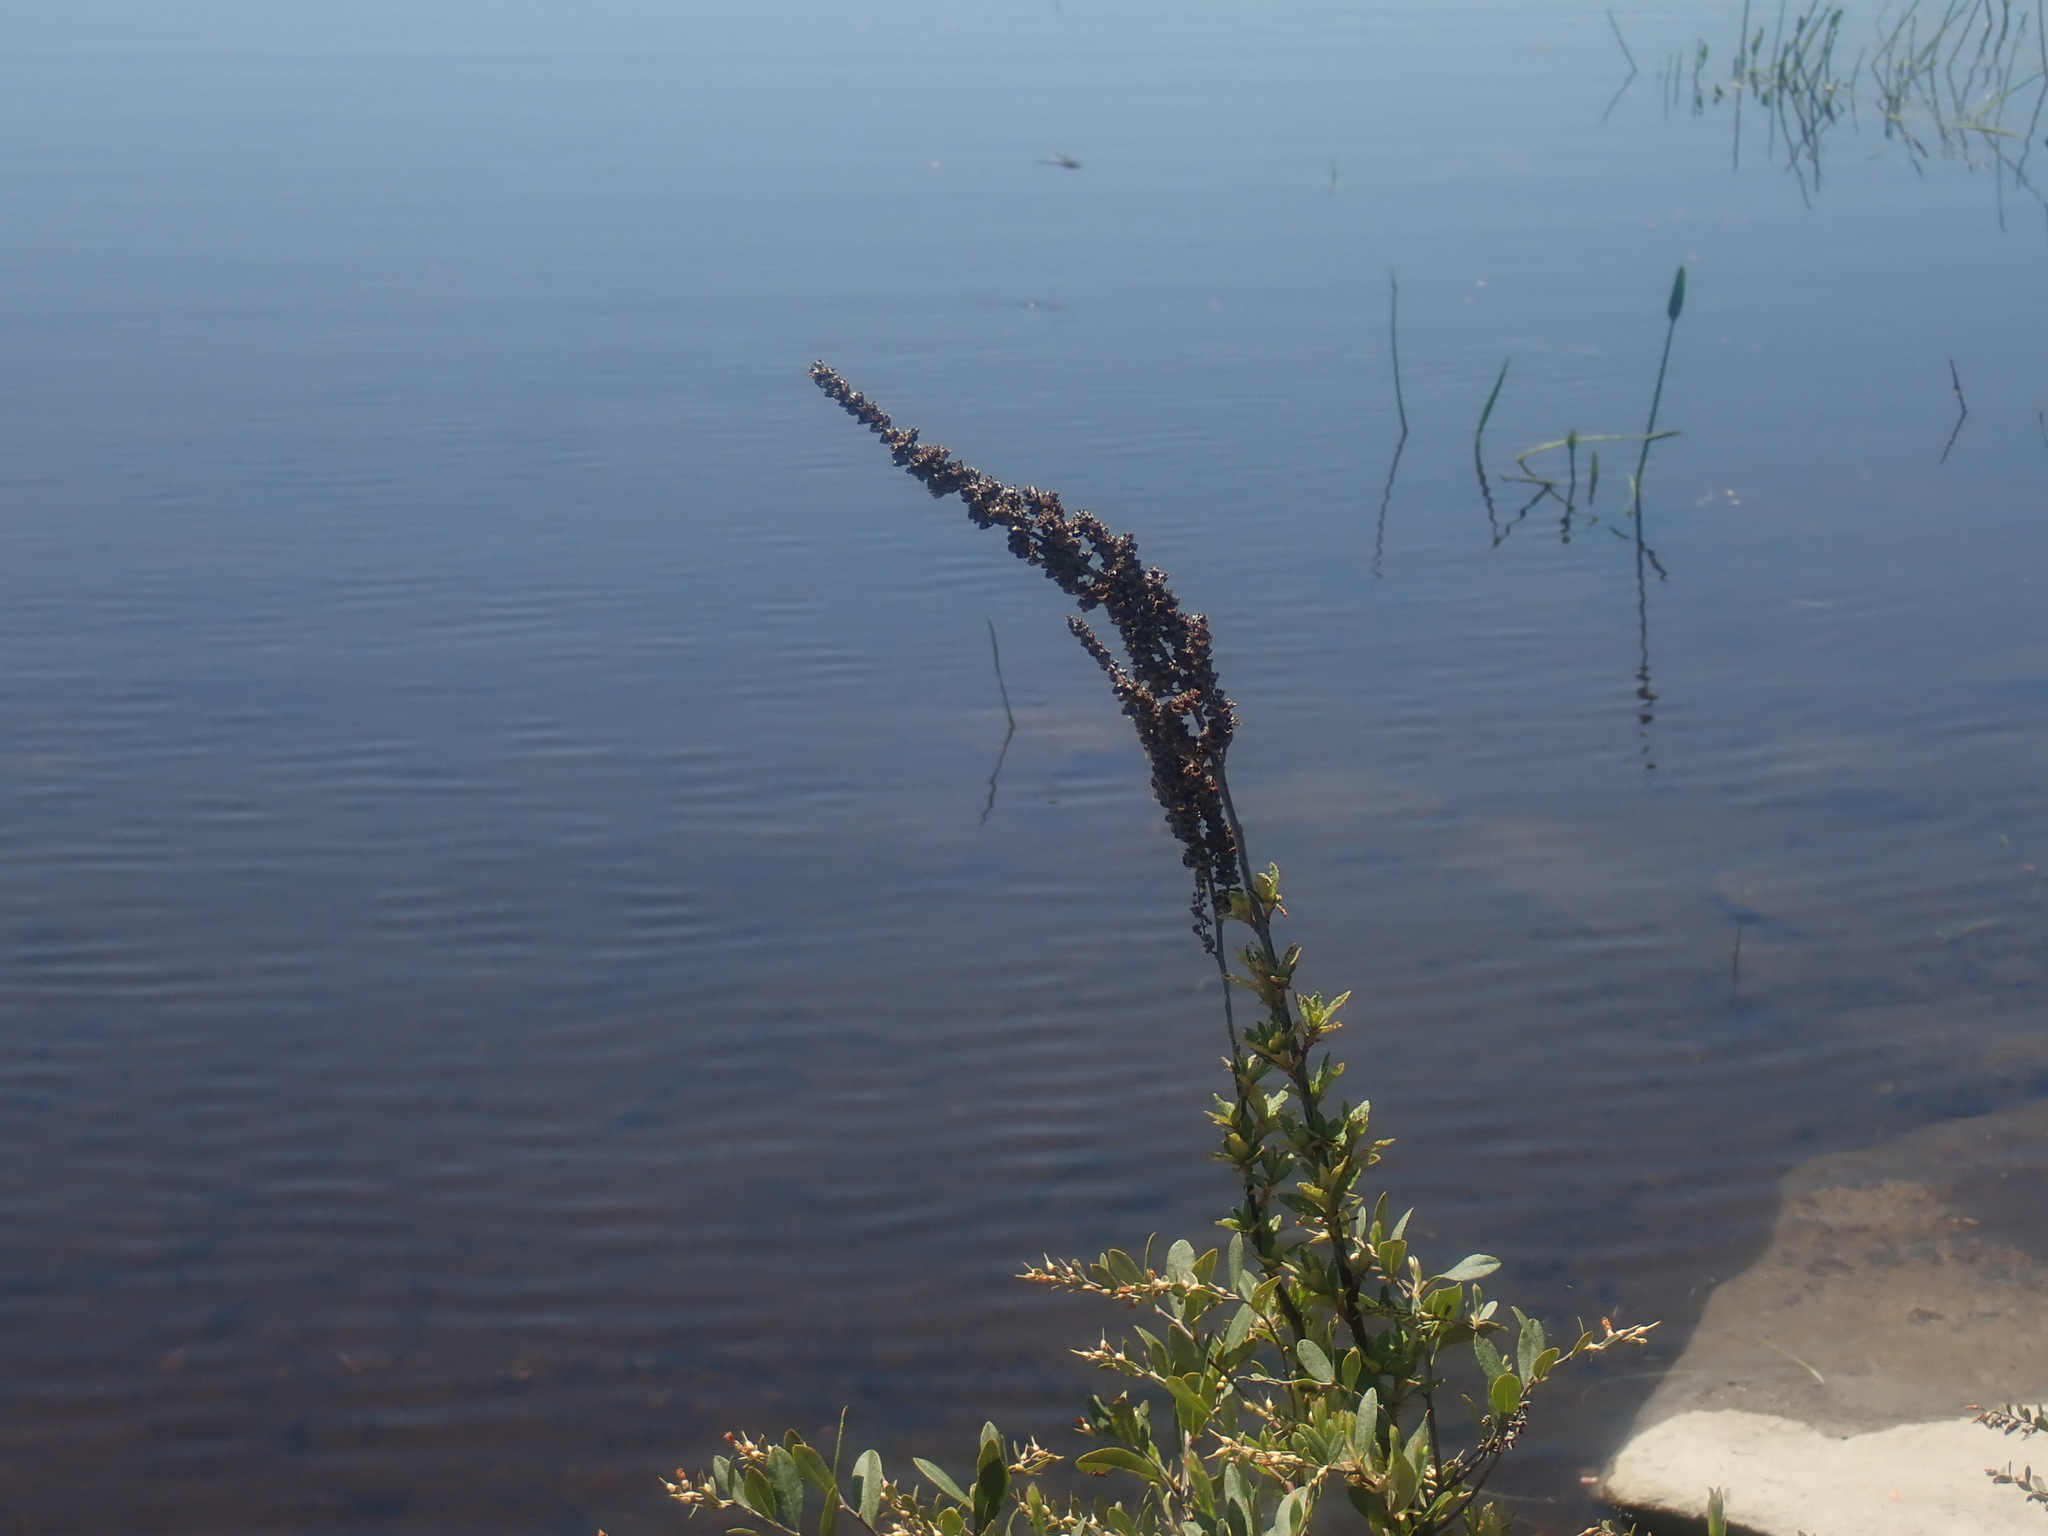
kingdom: Plantae
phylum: Tracheophyta
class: Magnoliopsida
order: Rosales
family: Rosaceae
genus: Spiraea
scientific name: Spiraea tomentosa
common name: Hardhack
